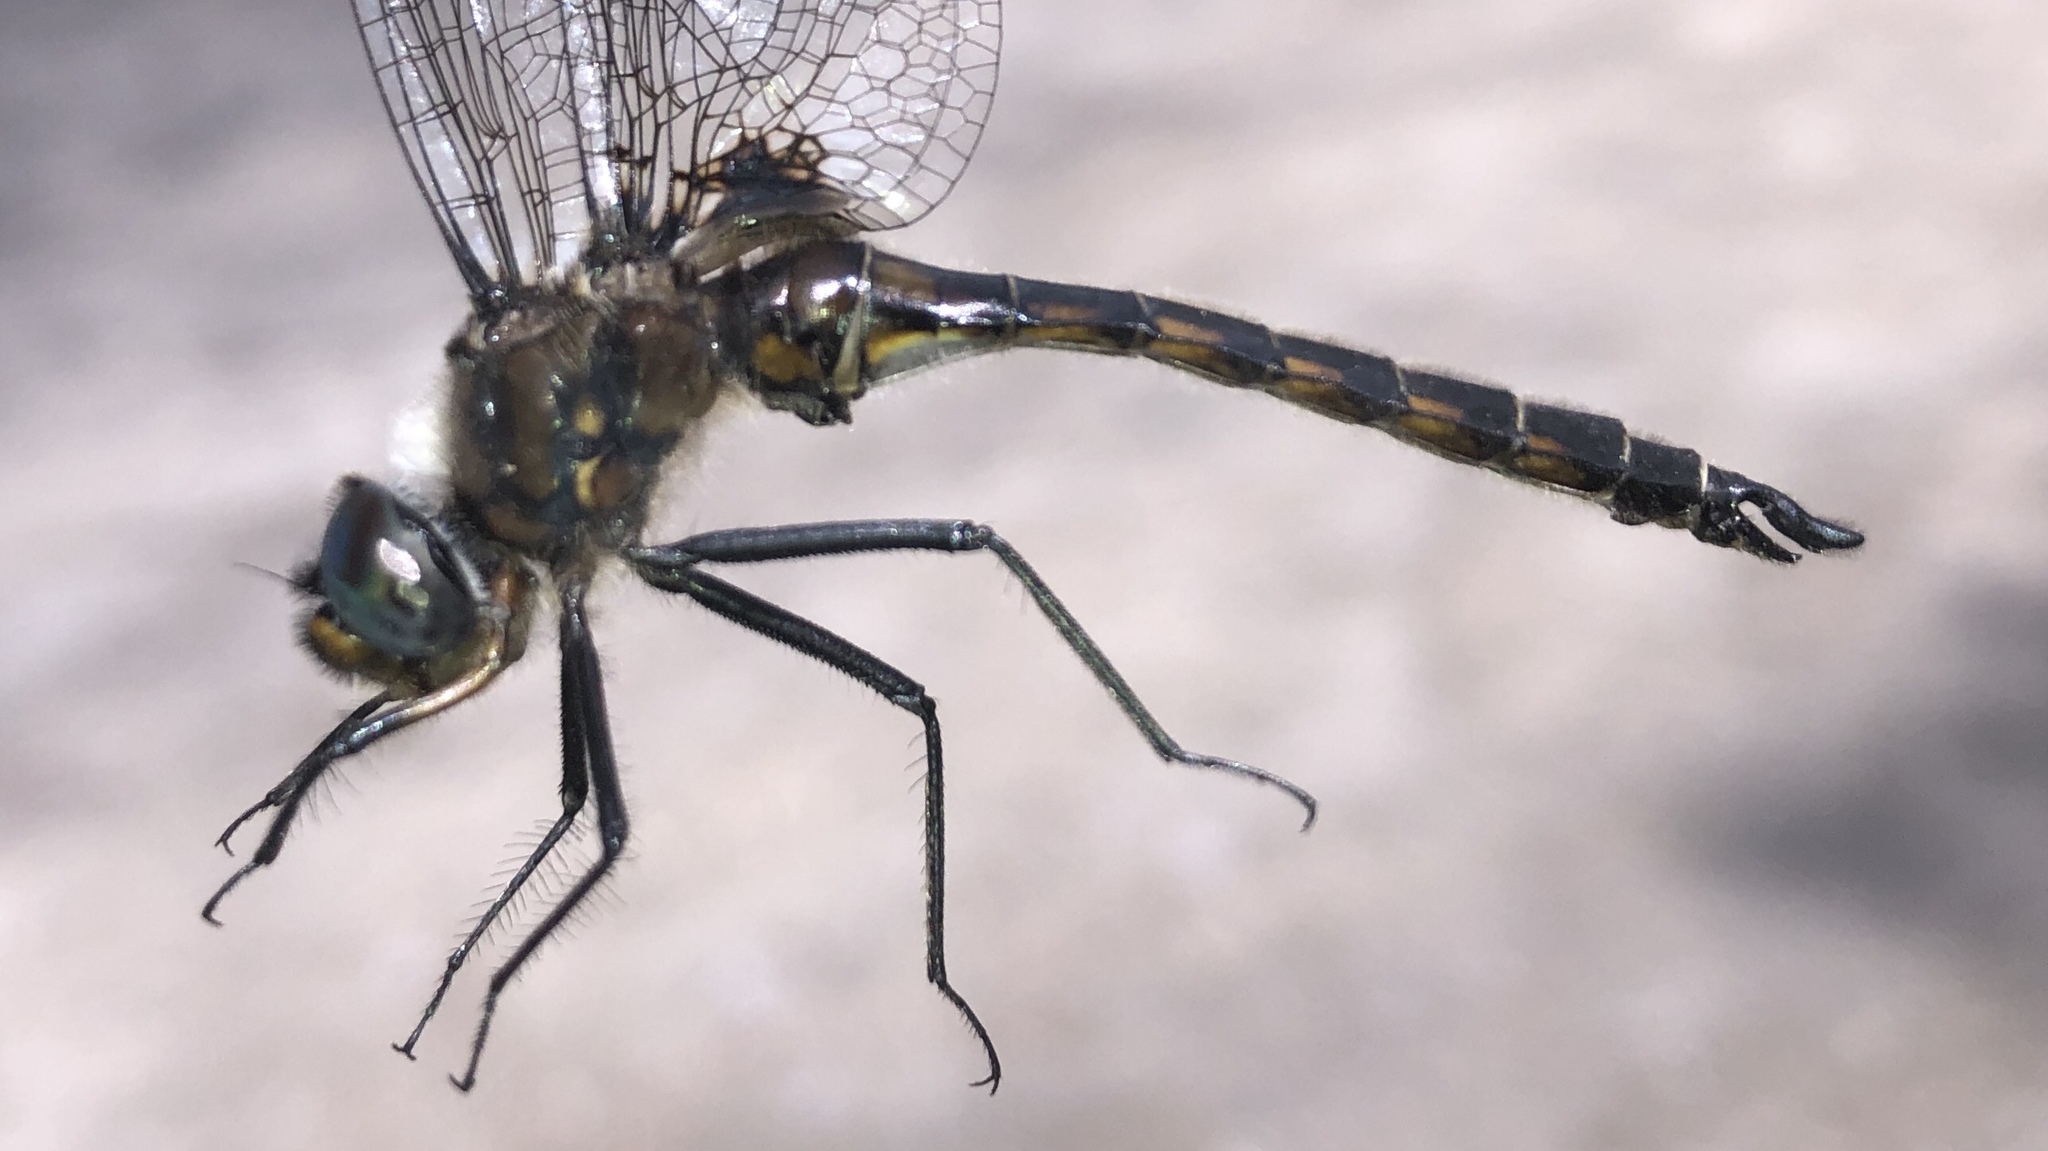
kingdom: Animalia
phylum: Arthropoda
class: Insecta
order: Odonata
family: Corduliidae
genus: Epitheca
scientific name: Epitheca cynosura
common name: Common baskettail
